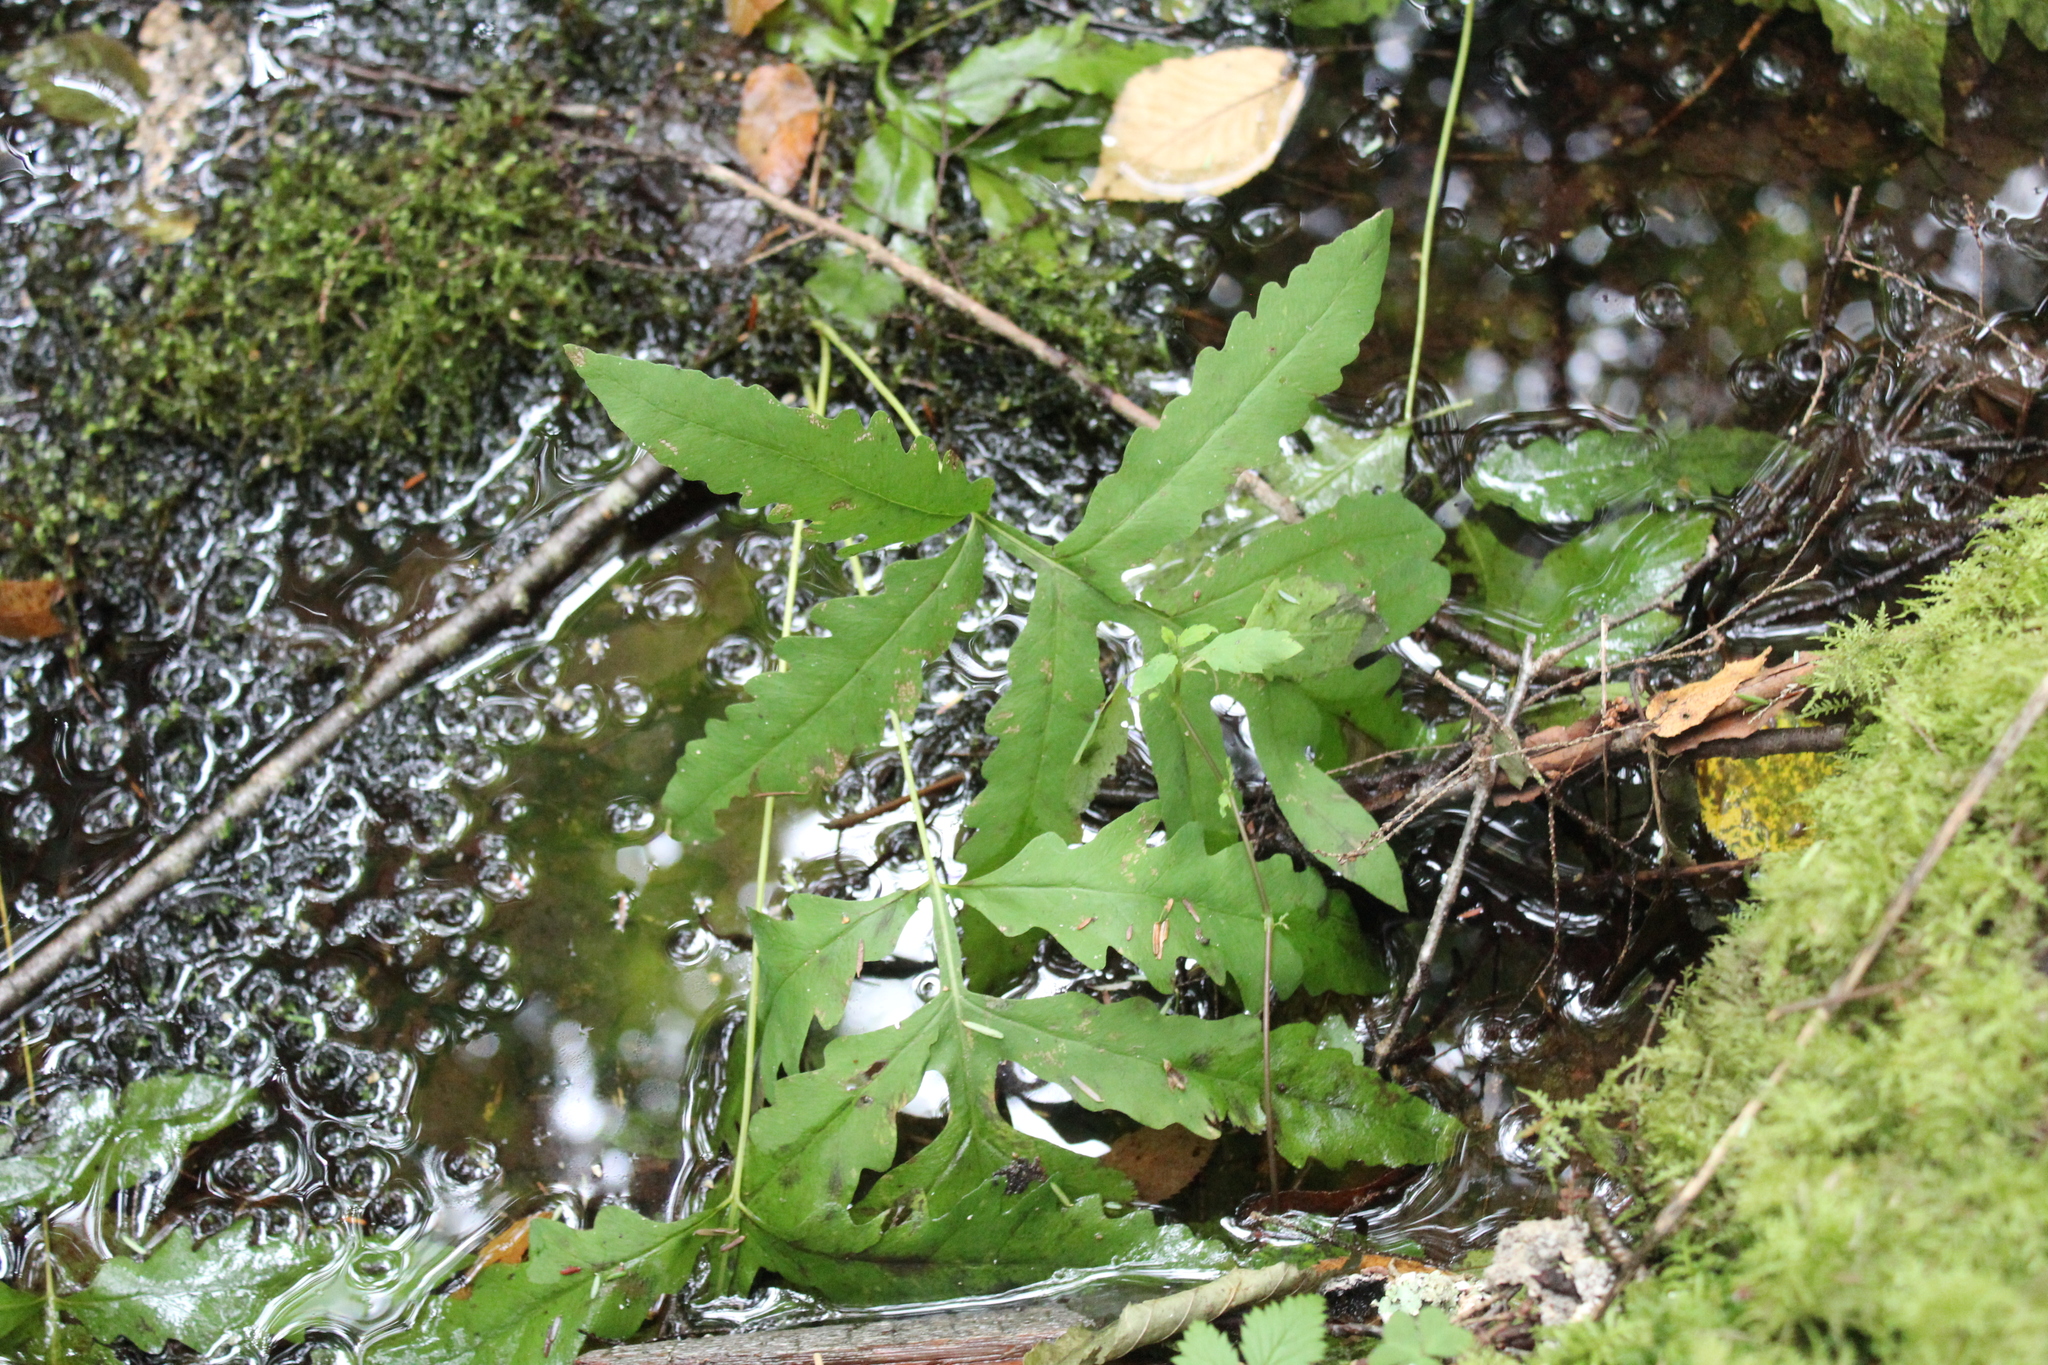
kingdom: Plantae
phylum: Tracheophyta
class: Polypodiopsida
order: Polypodiales
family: Onocleaceae
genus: Onoclea
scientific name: Onoclea sensibilis
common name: Sensitive fern
